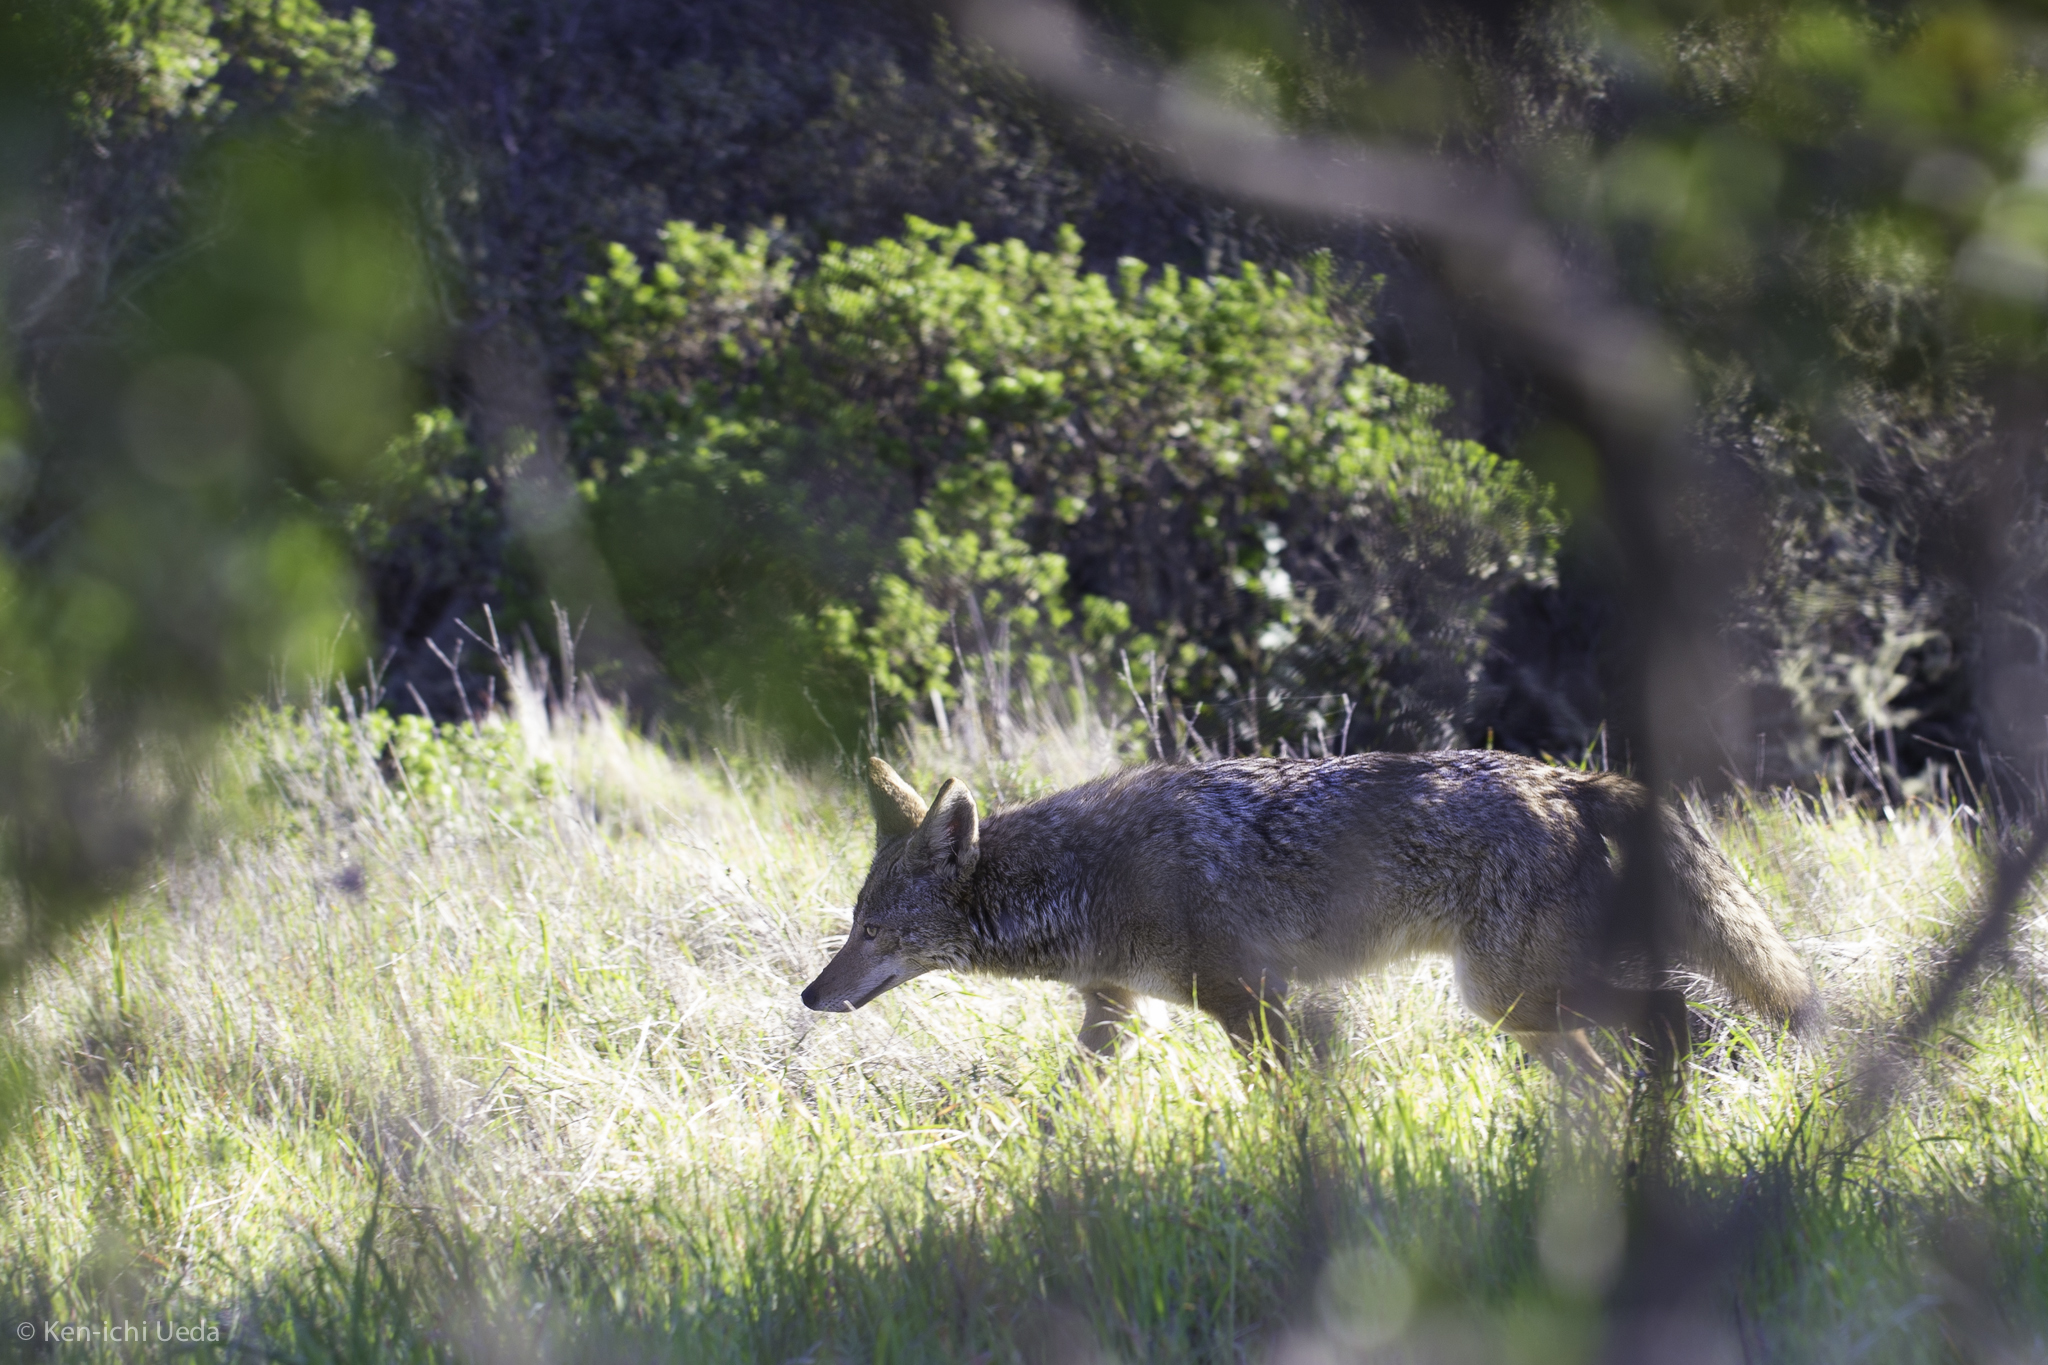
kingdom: Animalia
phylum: Chordata
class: Mammalia
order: Carnivora
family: Canidae
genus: Canis
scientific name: Canis latrans
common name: Coyote
